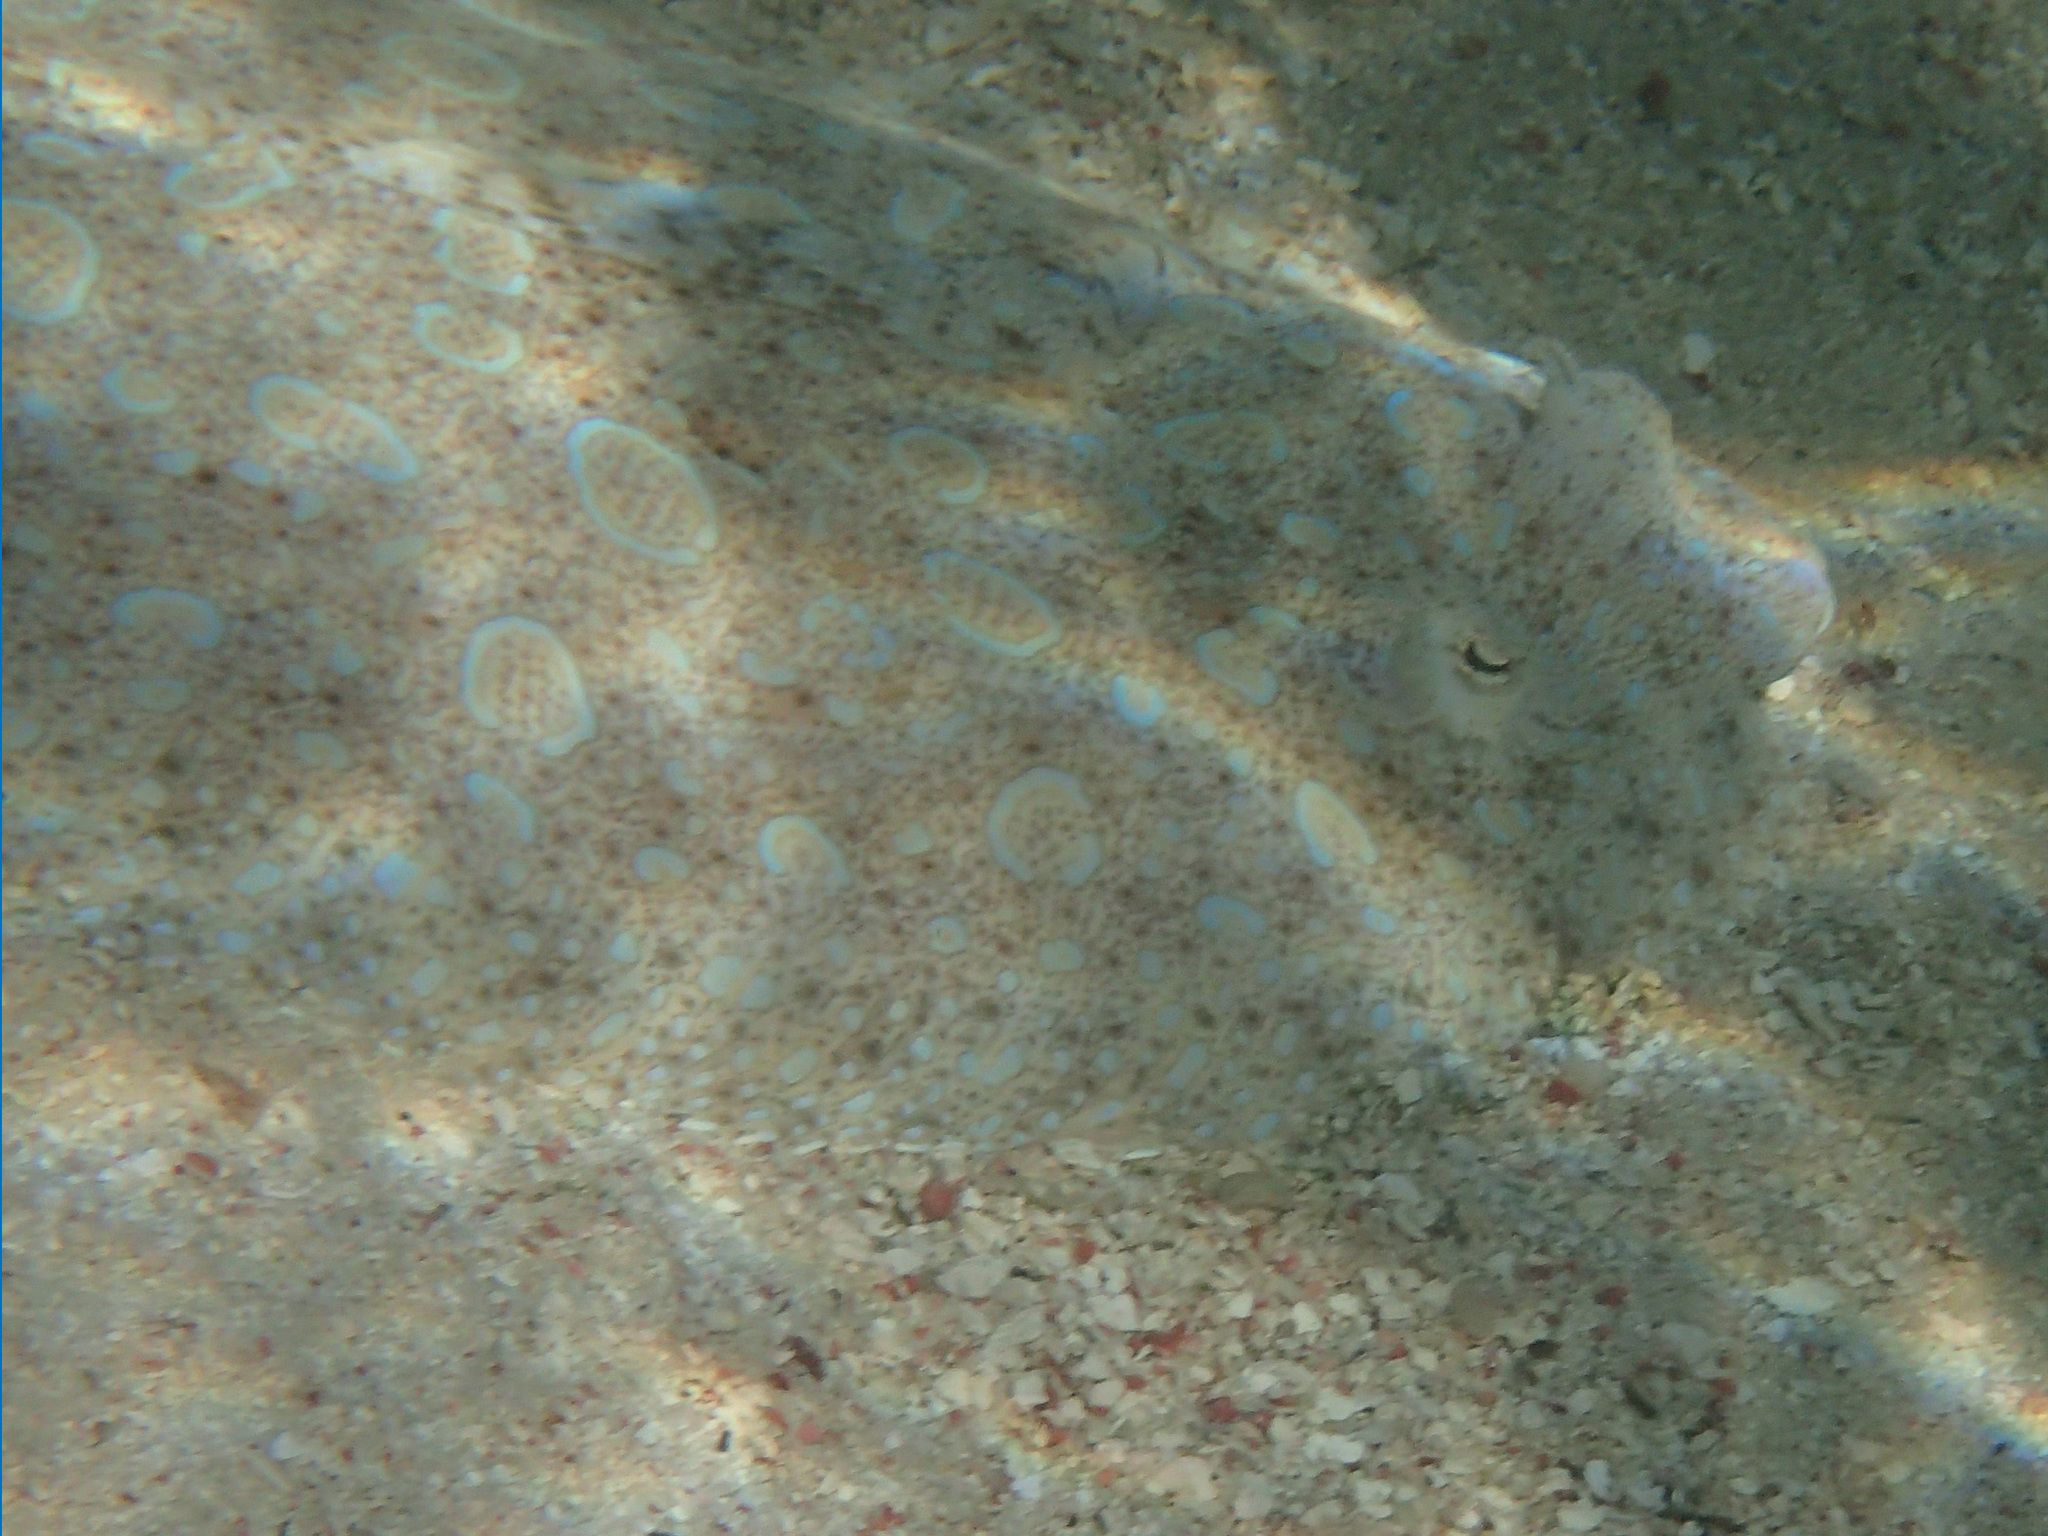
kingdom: Animalia
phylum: Chordata
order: Pleuronectiformes
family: Bothidae
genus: Bothus
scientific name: Bothus lunatus
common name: Peacock flounder
